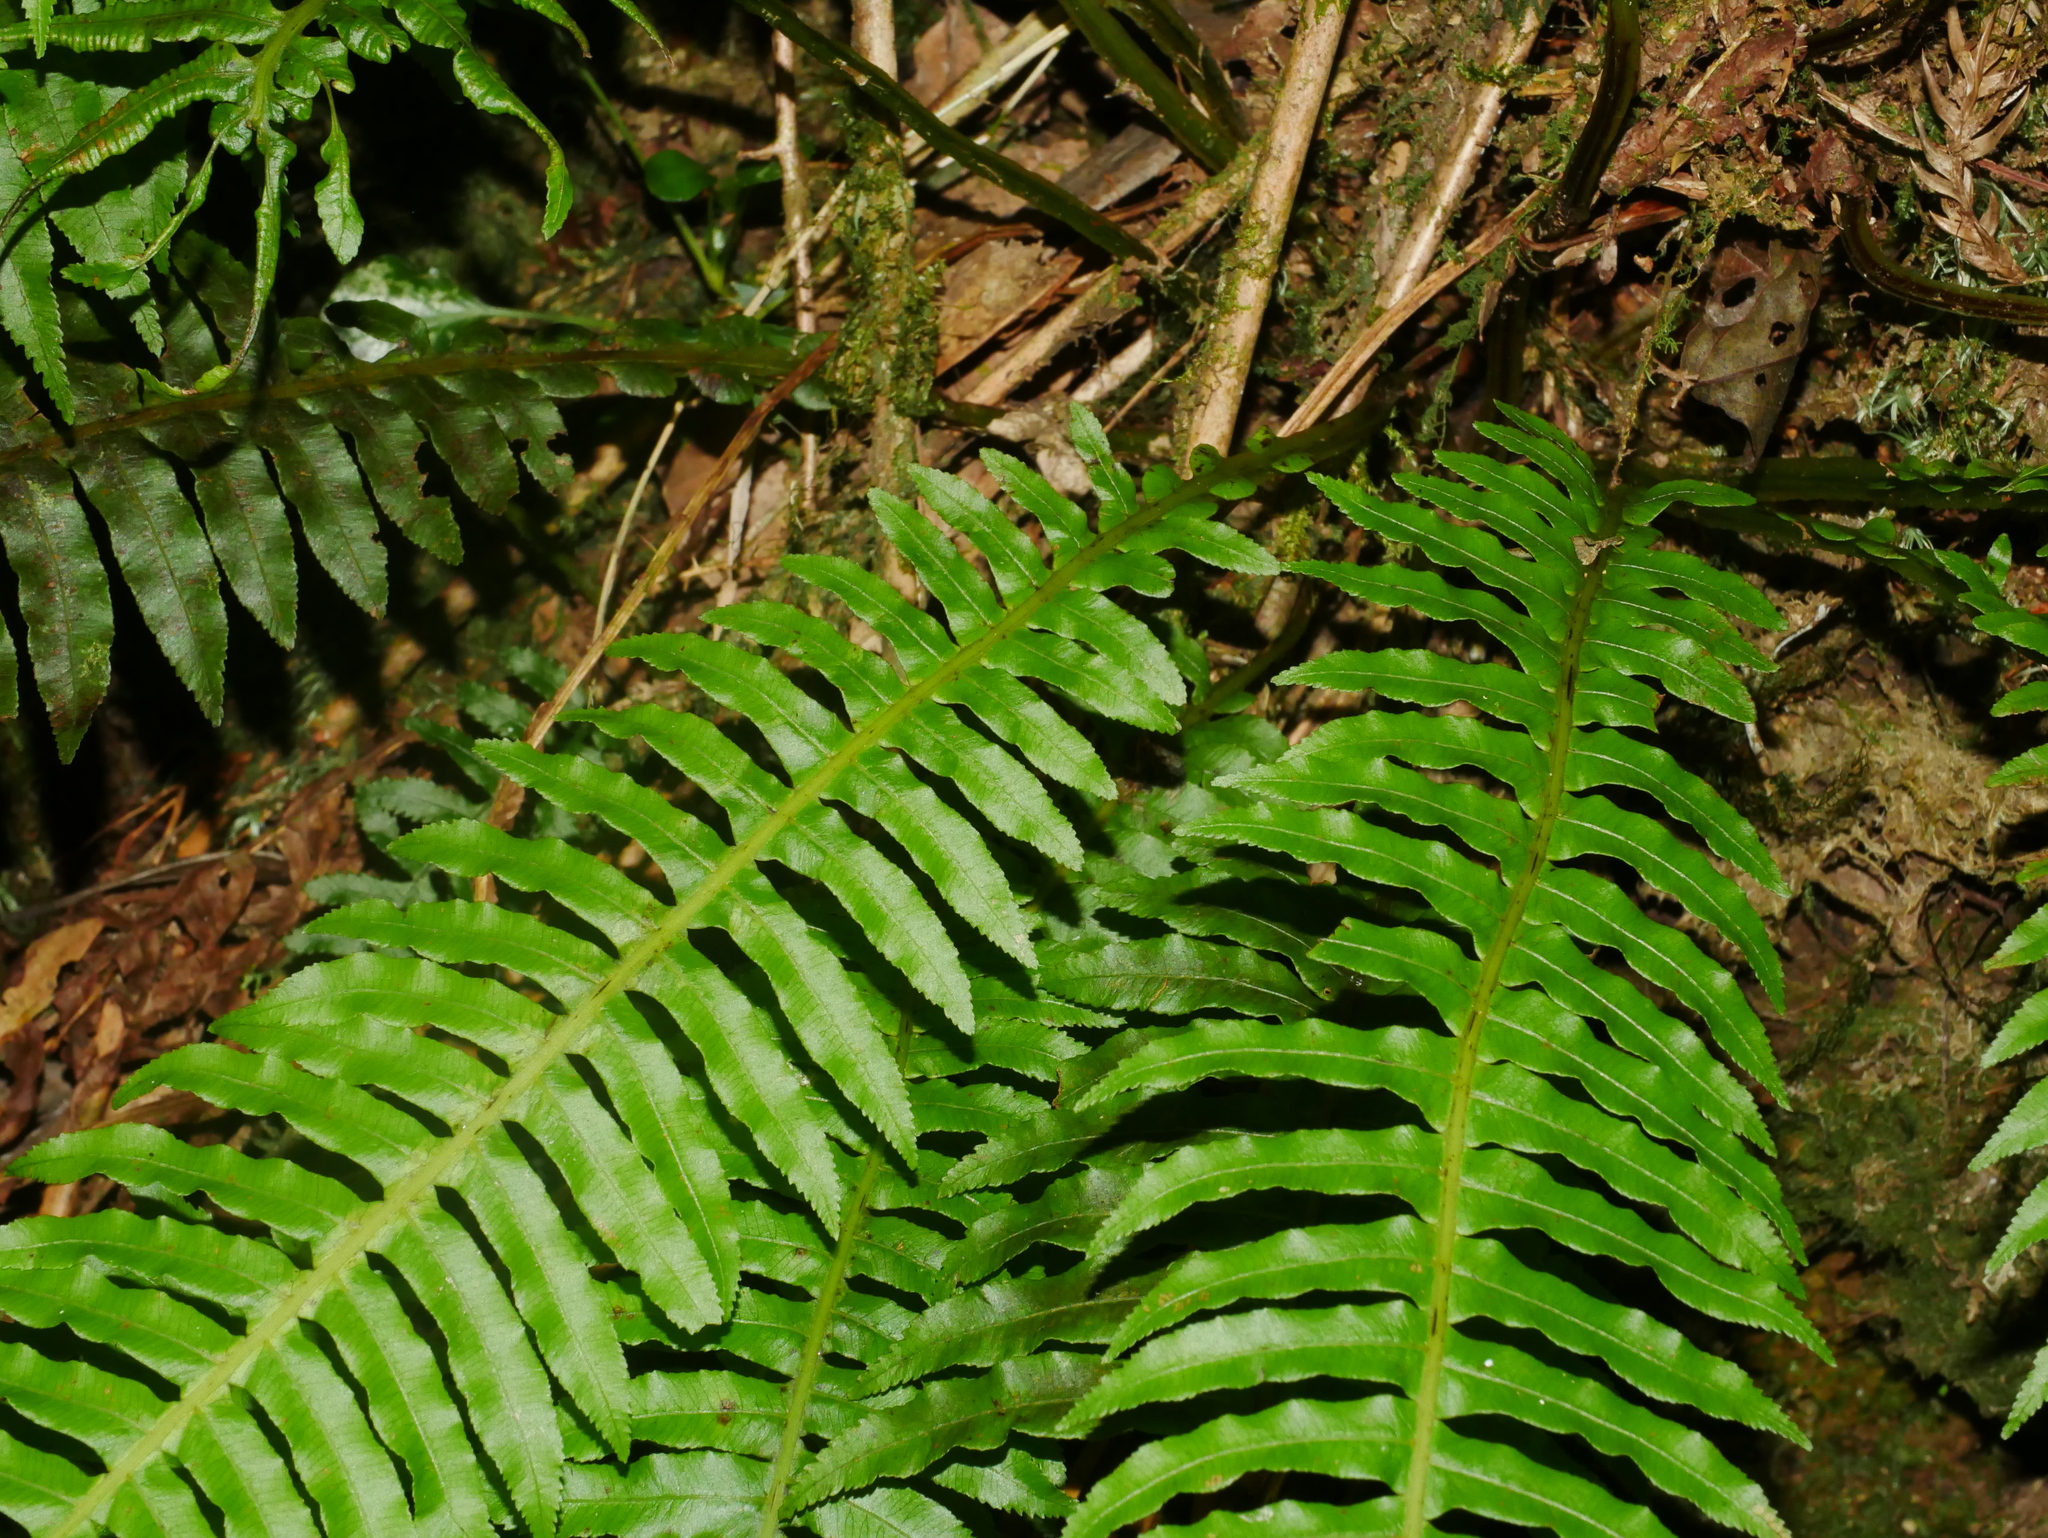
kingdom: Plantae
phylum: Tracheophyta
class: Polypodiopsida
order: Cyatheales
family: Plagiogyriaceae
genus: Plagiogyria
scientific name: Plagiogyria stenoptera
